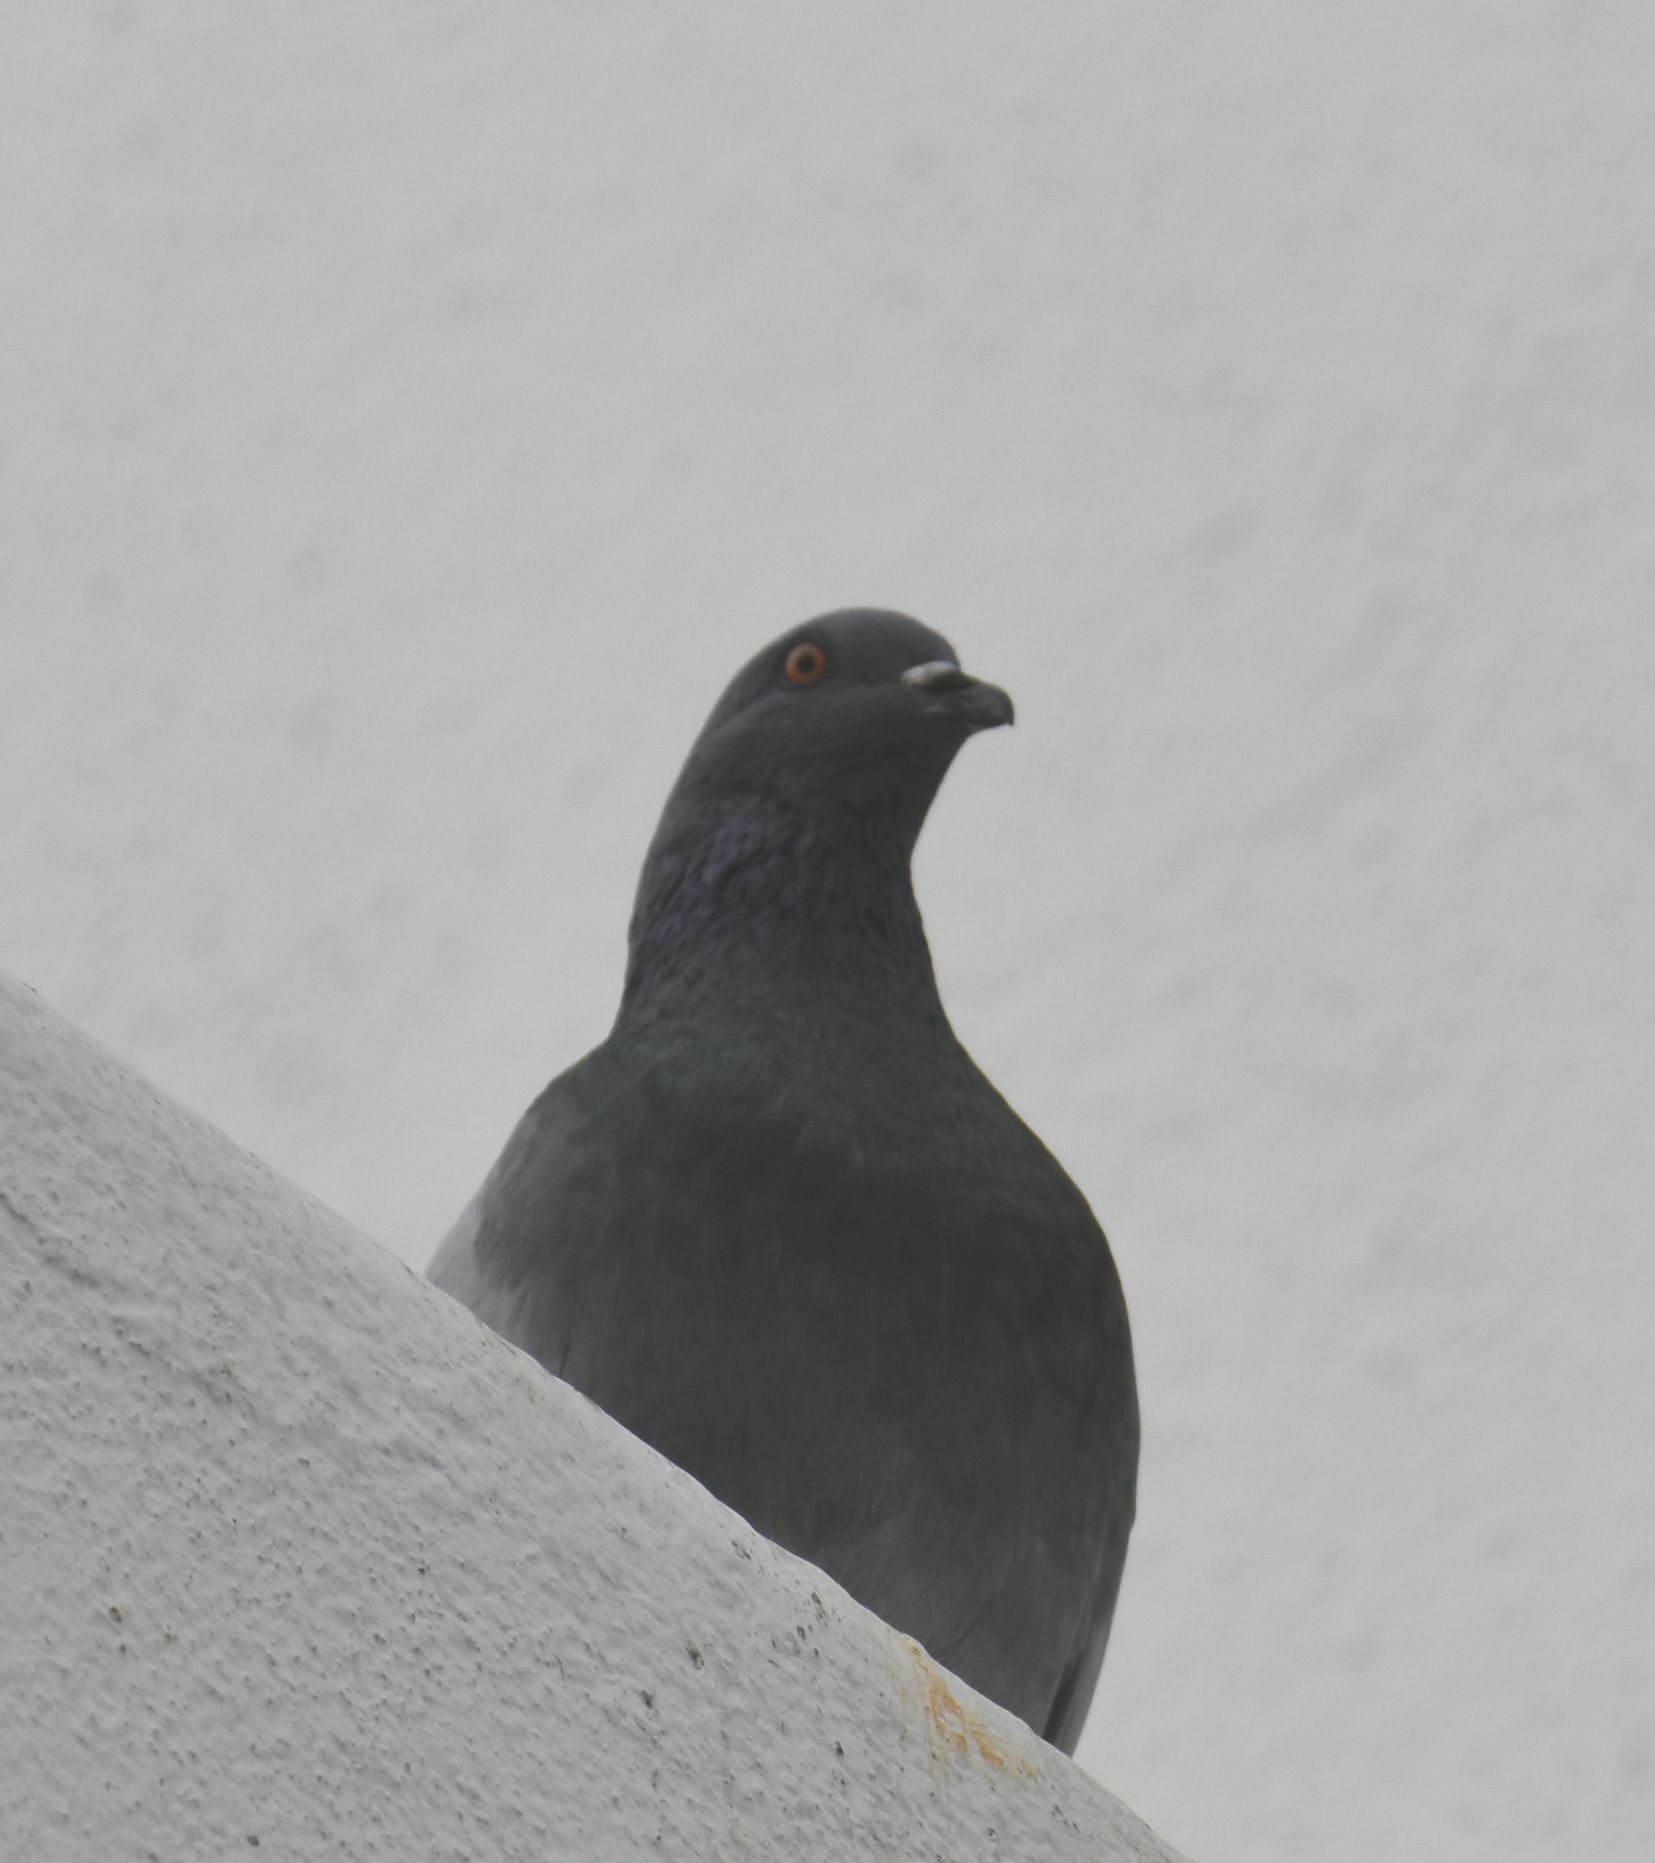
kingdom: Animalia
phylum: Chordata
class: Aves
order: Columbiformes
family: Columbidae
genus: Columba
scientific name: Columba livia
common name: Rock pigeon
